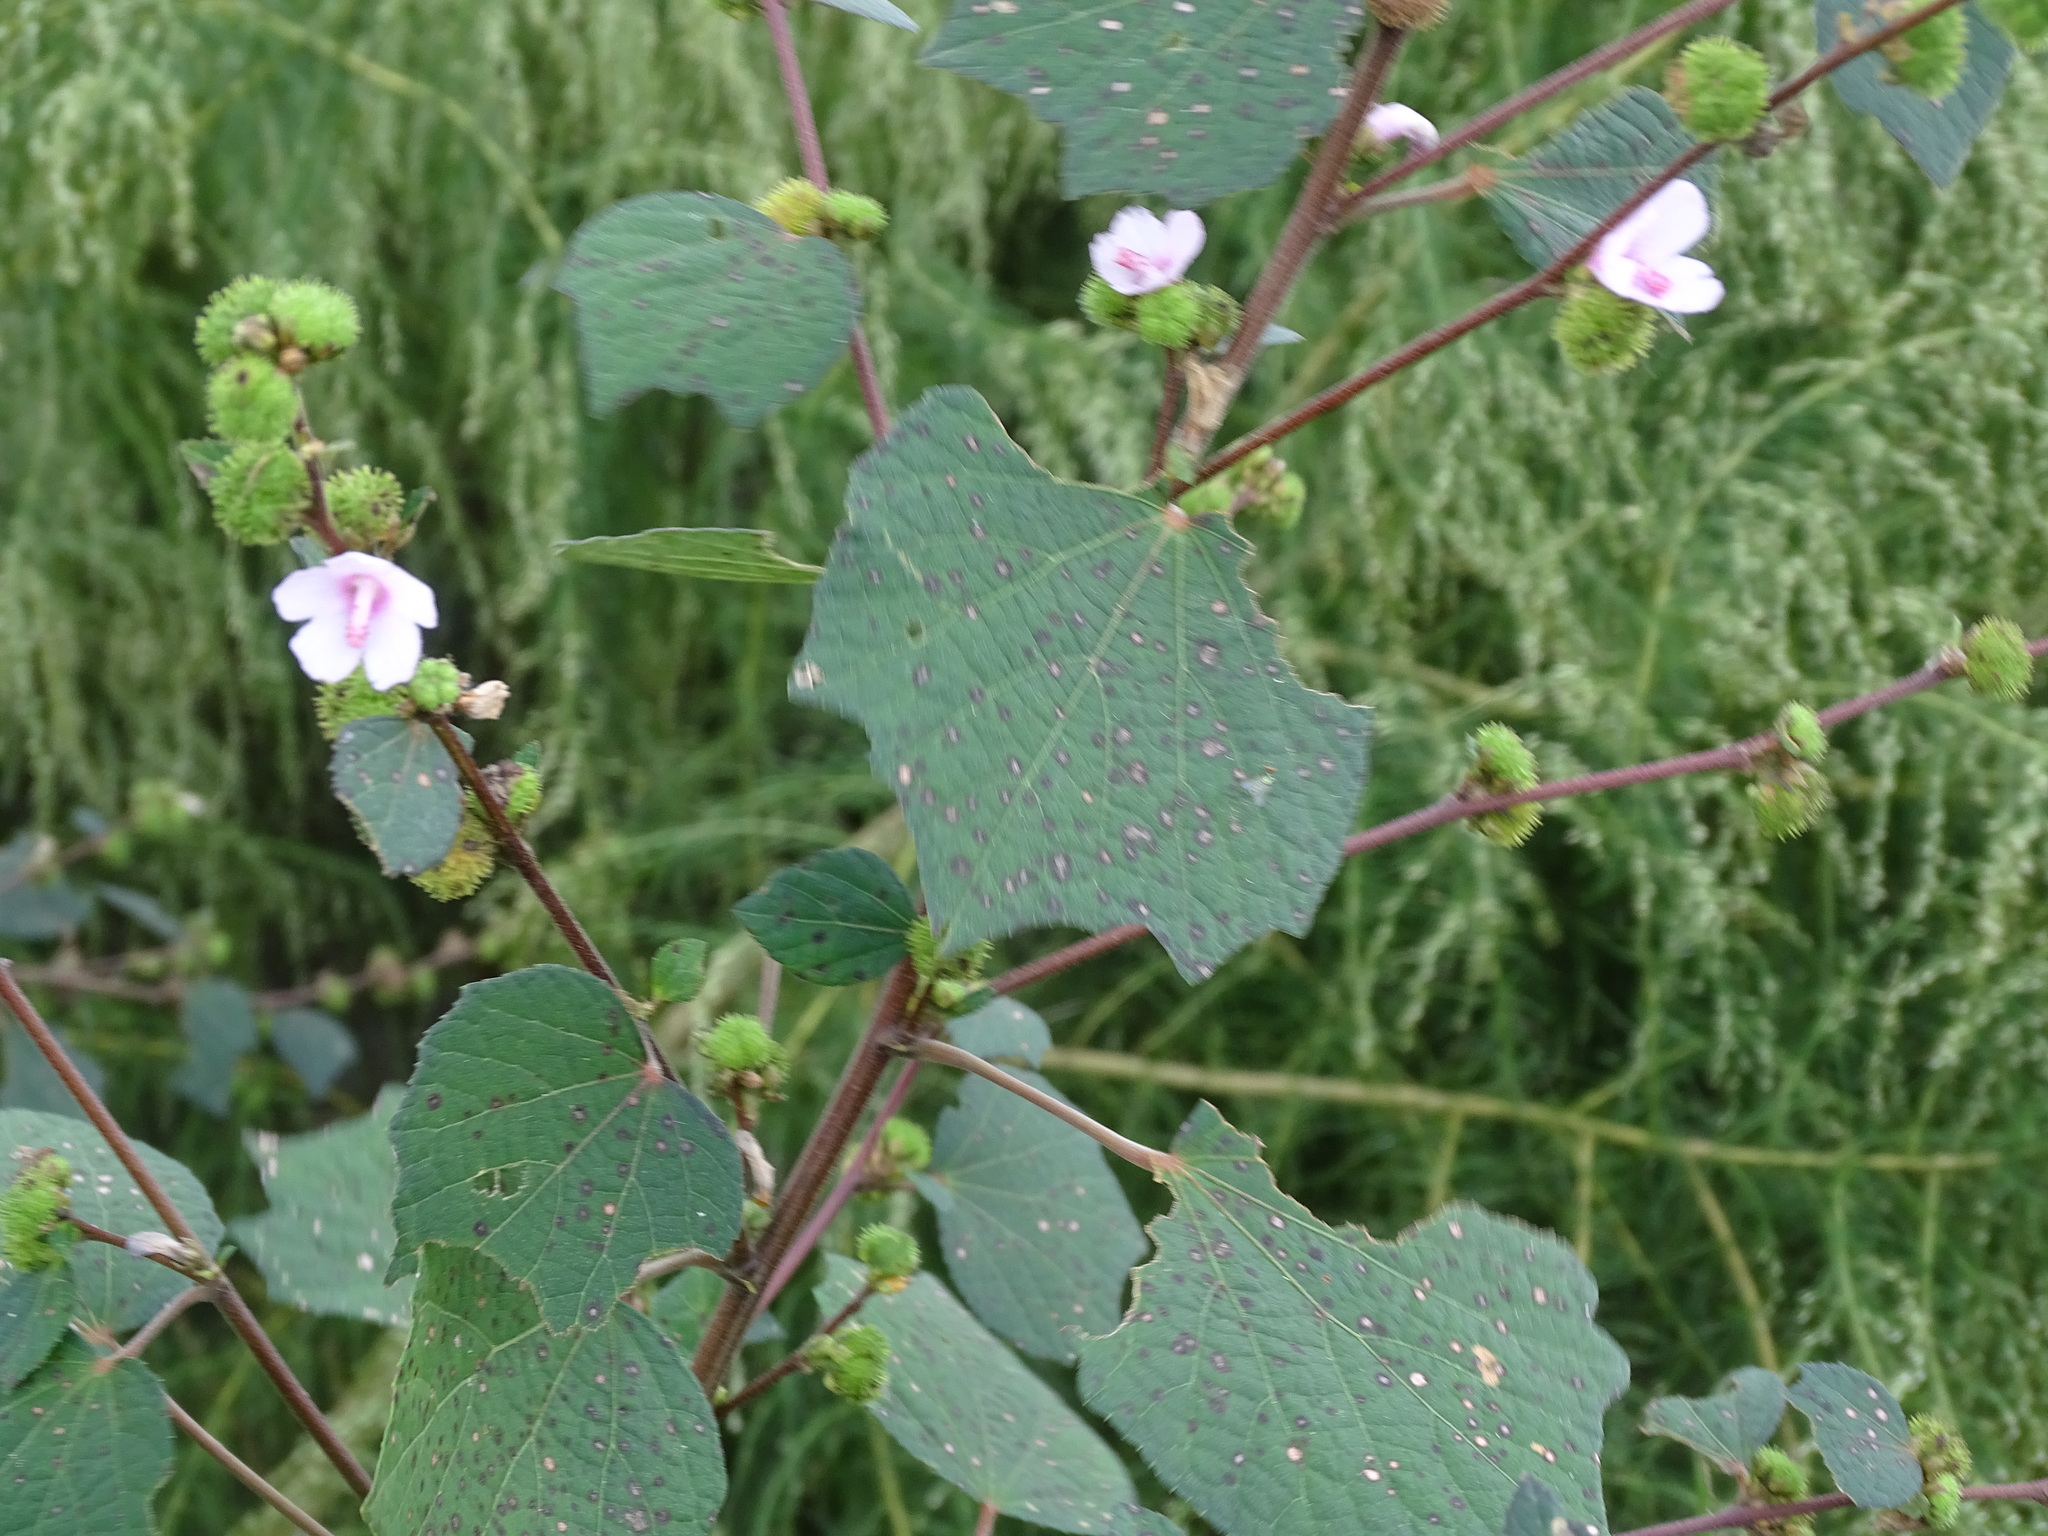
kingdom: Plantae
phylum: Tracheophyta
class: Magnoliopsida
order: Malvales
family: Malvaceae
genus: Urena
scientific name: Urena lobata
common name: Caesarweed
